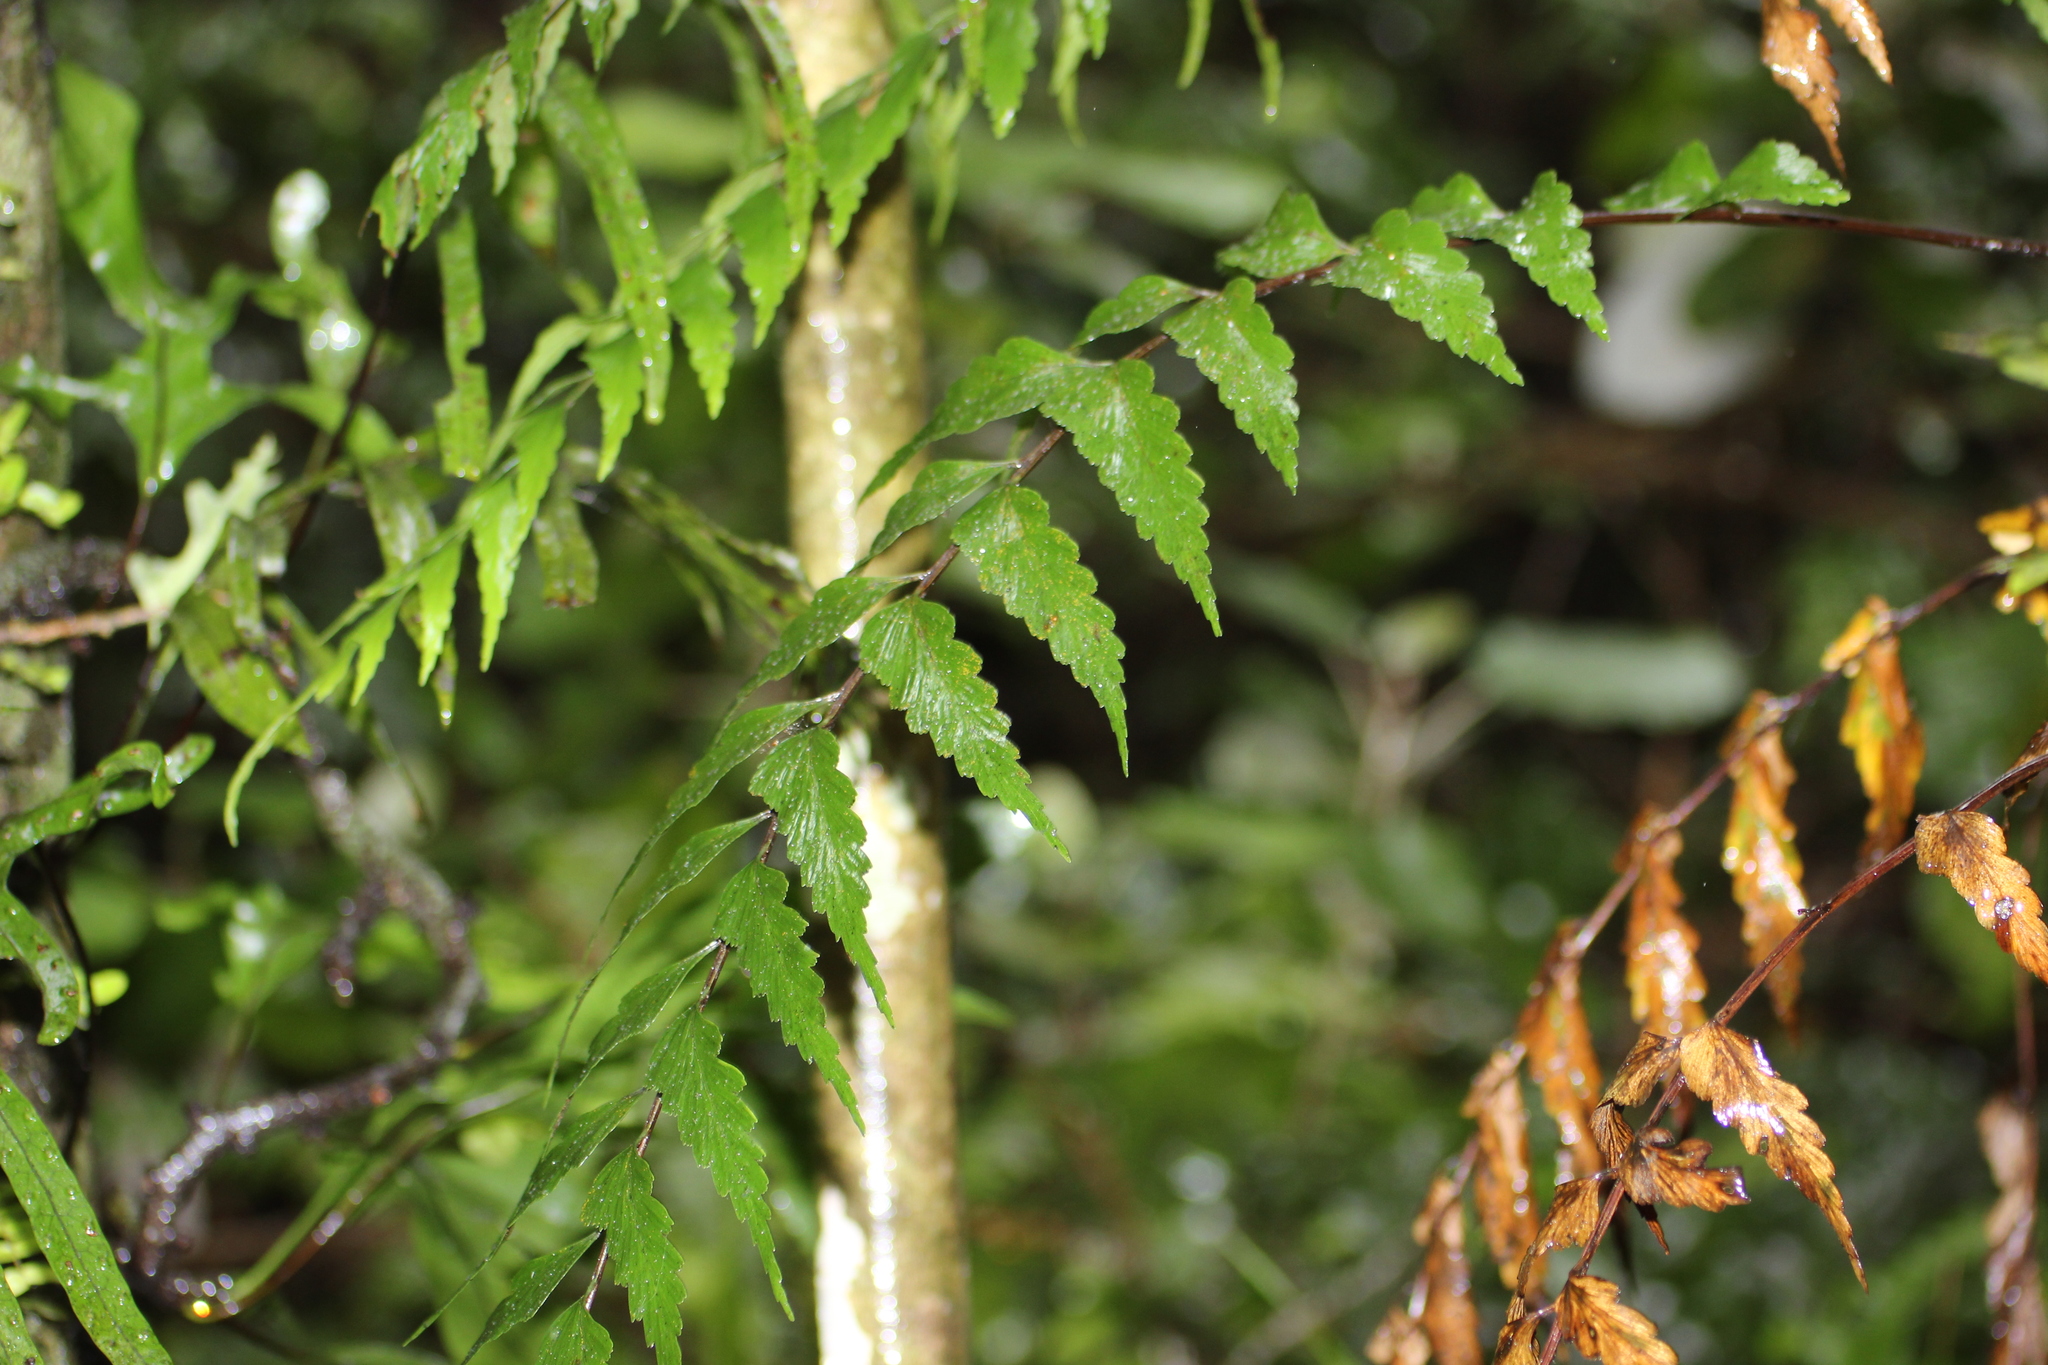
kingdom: Plantae
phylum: Tracheophyta
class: Polypodiopsida
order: Polypodiales
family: Aspleniaceae
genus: Asplenium
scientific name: Asplenium polyodon
